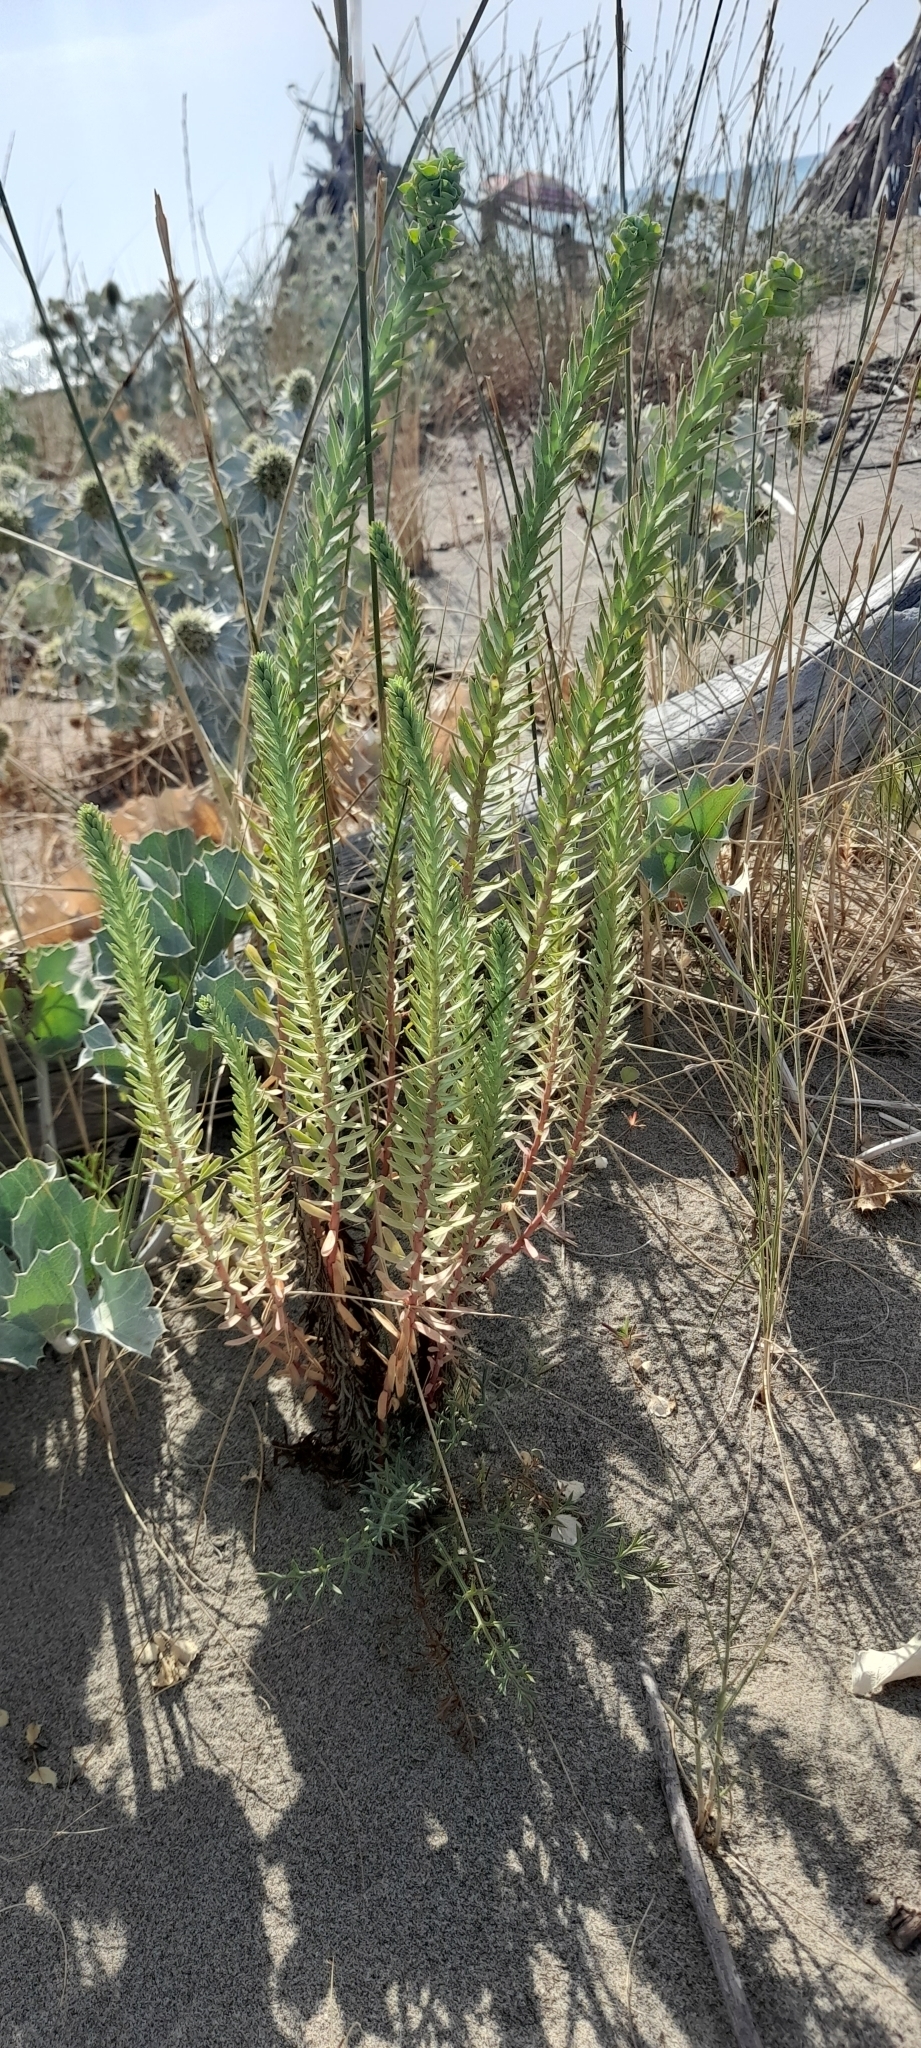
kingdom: Plantae
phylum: Tracheophyta
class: Magnoliopsida
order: Malpighiales
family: Euphorbiaceae
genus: Euphorbia
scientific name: Euphorbia paralias
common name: Sea spurge
